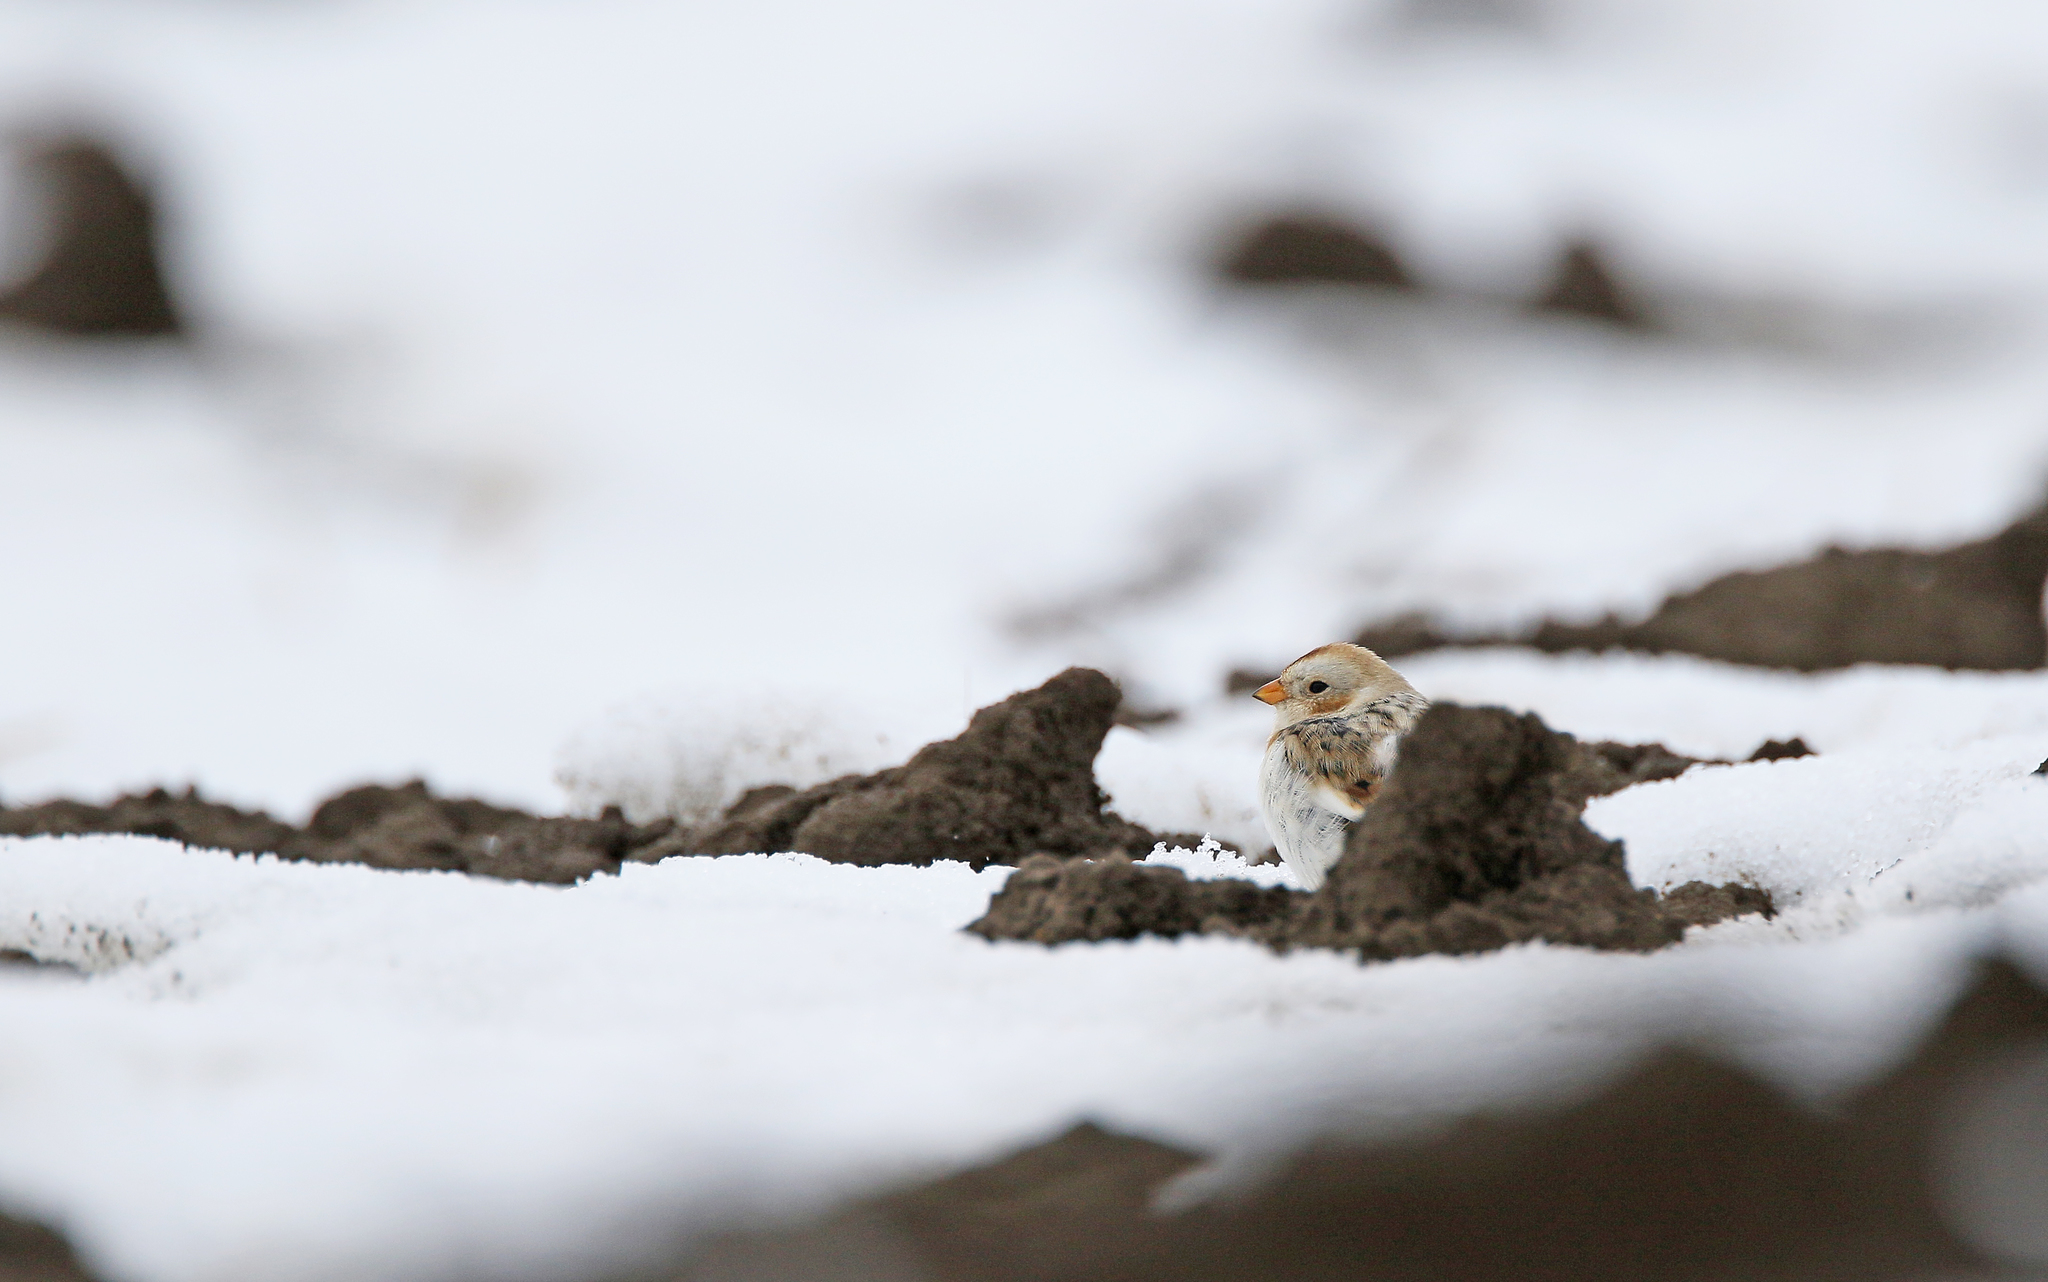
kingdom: Animalia
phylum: Chordata
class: Aves
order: Passeriformes
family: Calcariidae
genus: Plectrophenax
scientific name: Plectrophenax nivalis
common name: Snow bunting
